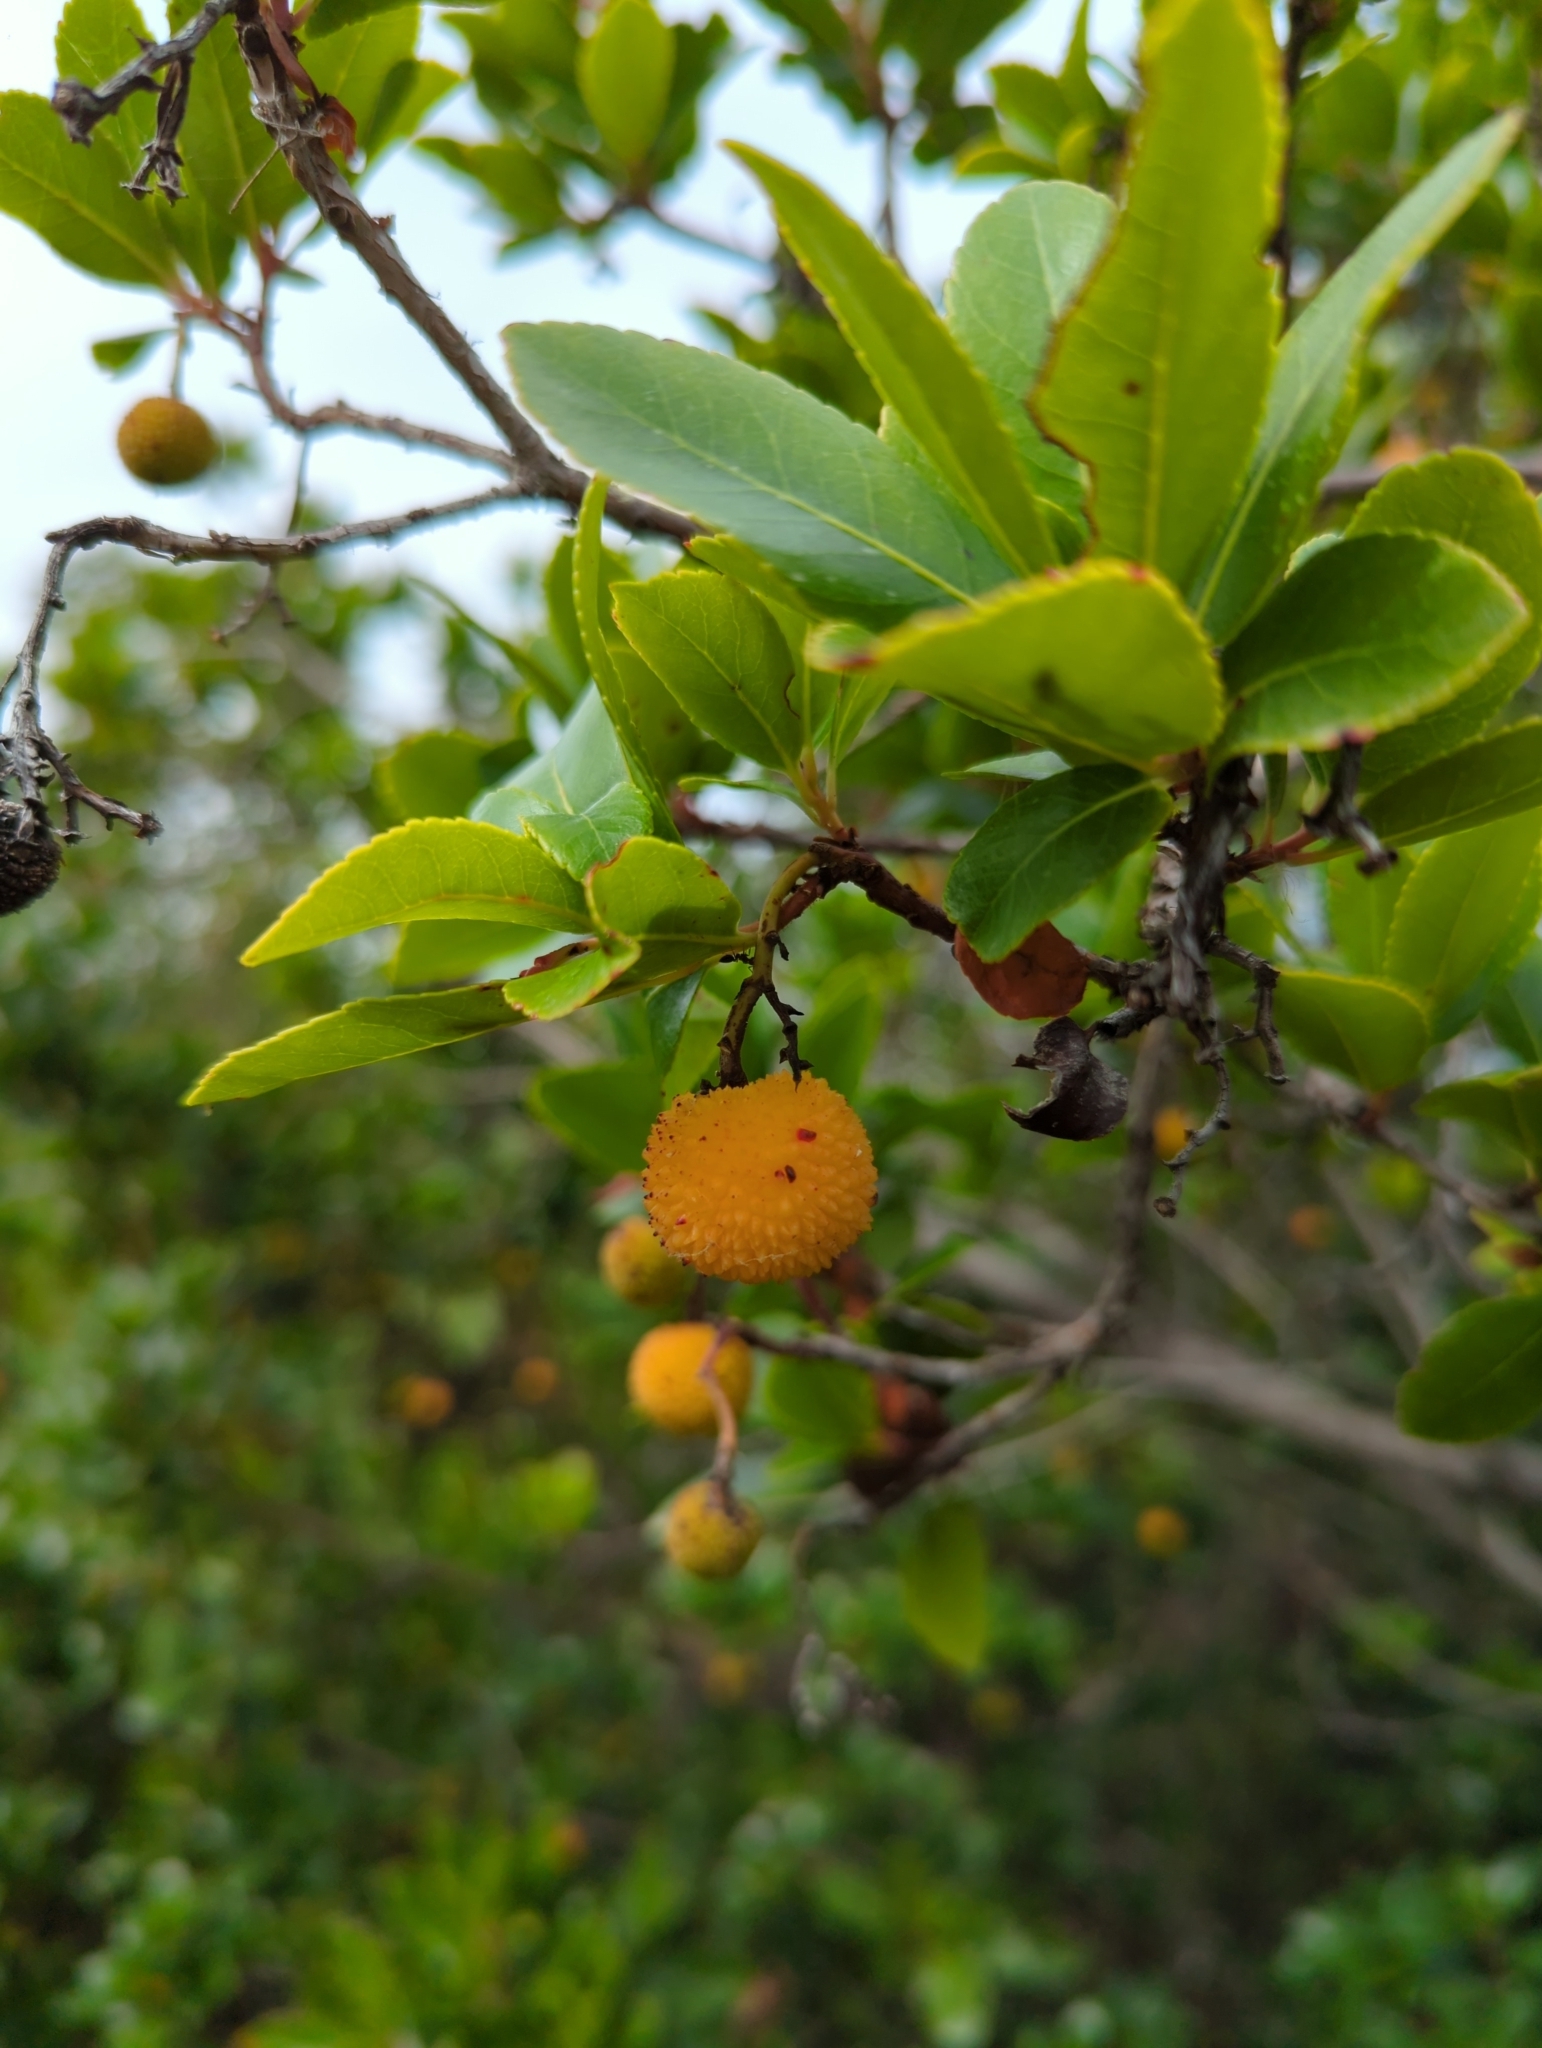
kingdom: Plantae
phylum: Tracheophyta
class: Magnoliopsida
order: Ericales
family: Ericaceae
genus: Arbutus
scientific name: Arbutus unedo
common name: Strawberry-tree
